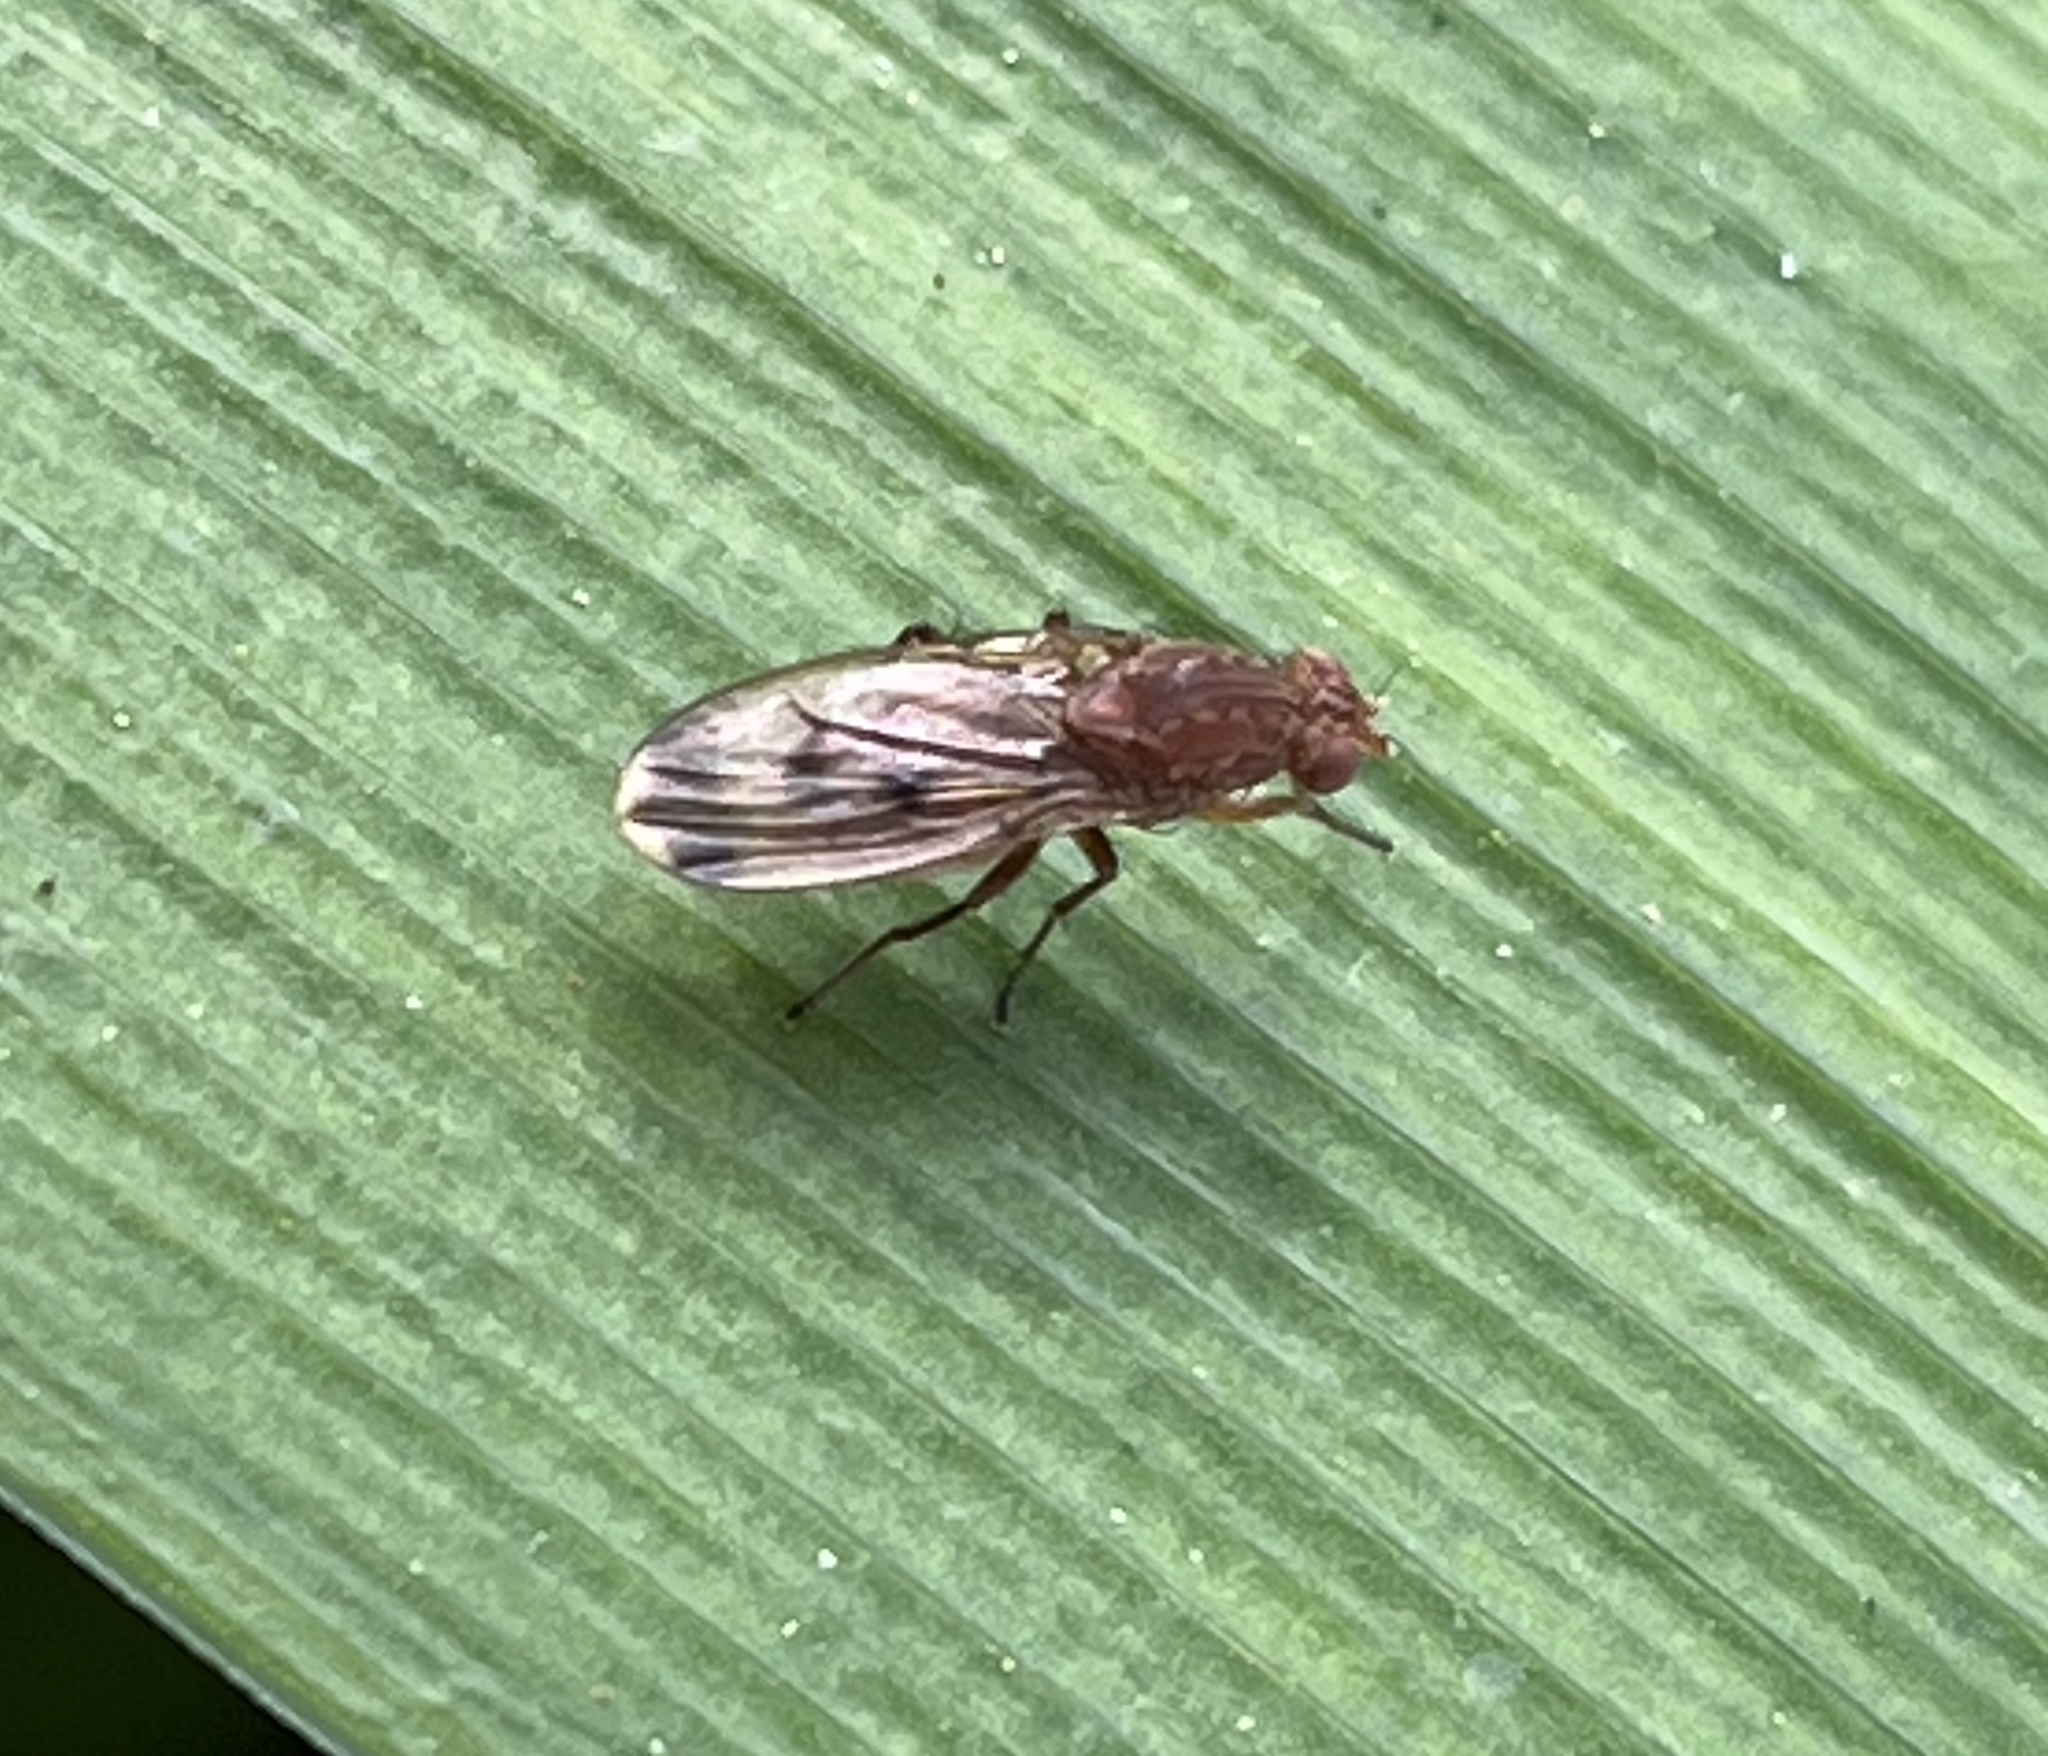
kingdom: Animalia
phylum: Arthropoda
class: Insecta
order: Diptera
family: Heleomyzidae
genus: Suillia
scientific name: Suillia variegata
